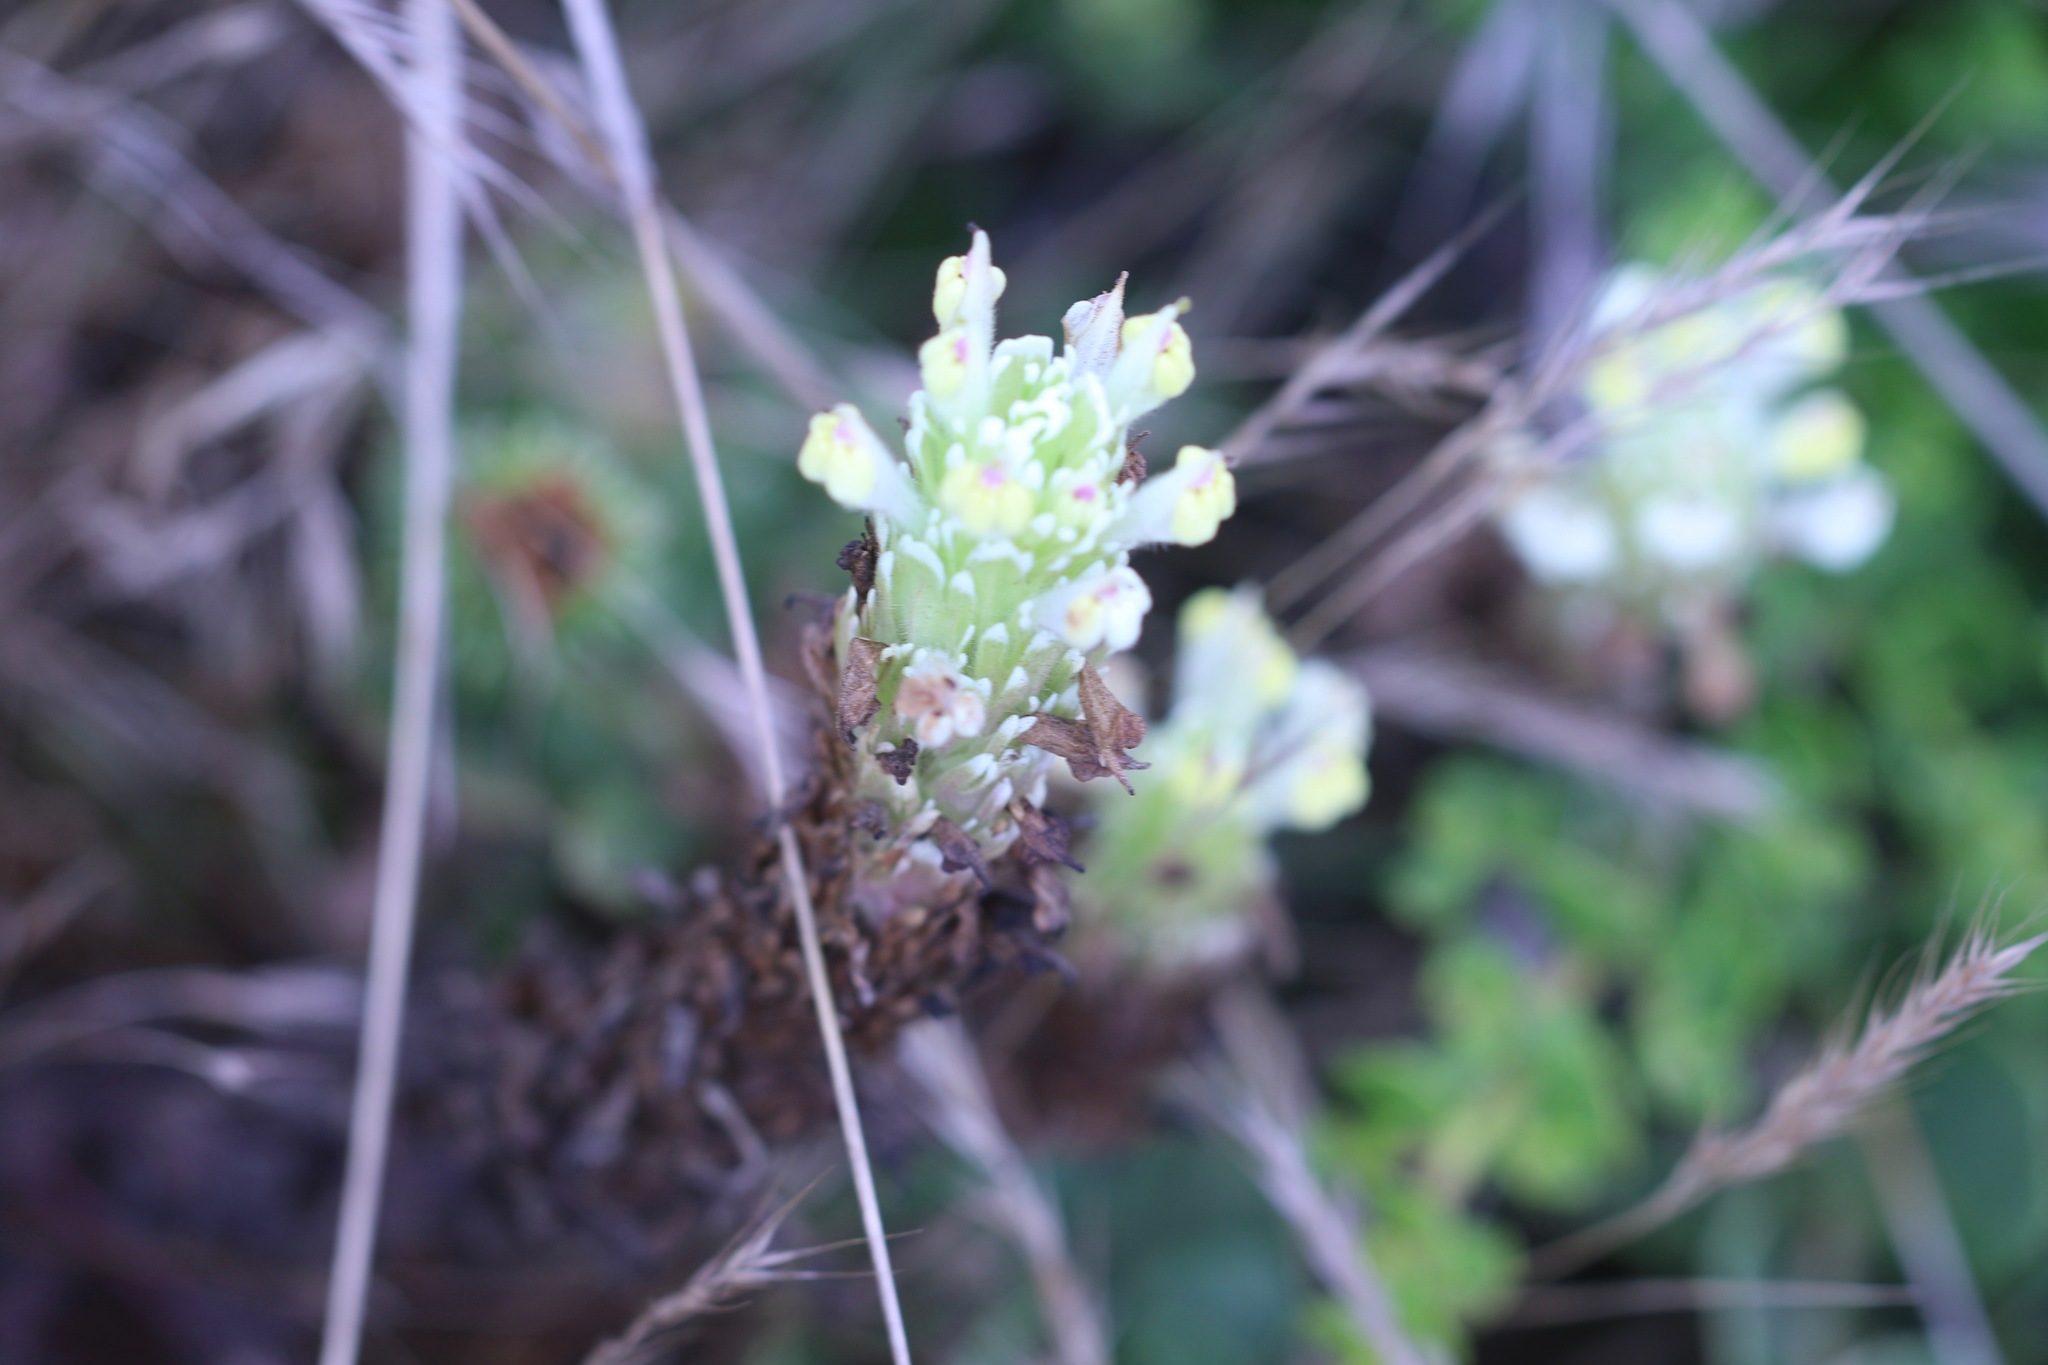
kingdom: Plantae
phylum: Tracheophyta
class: Magnoliopsida
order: Lamiales
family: Orobanchaceae
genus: Castilleja
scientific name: Castilleja ambigua
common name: Johnny-nip
